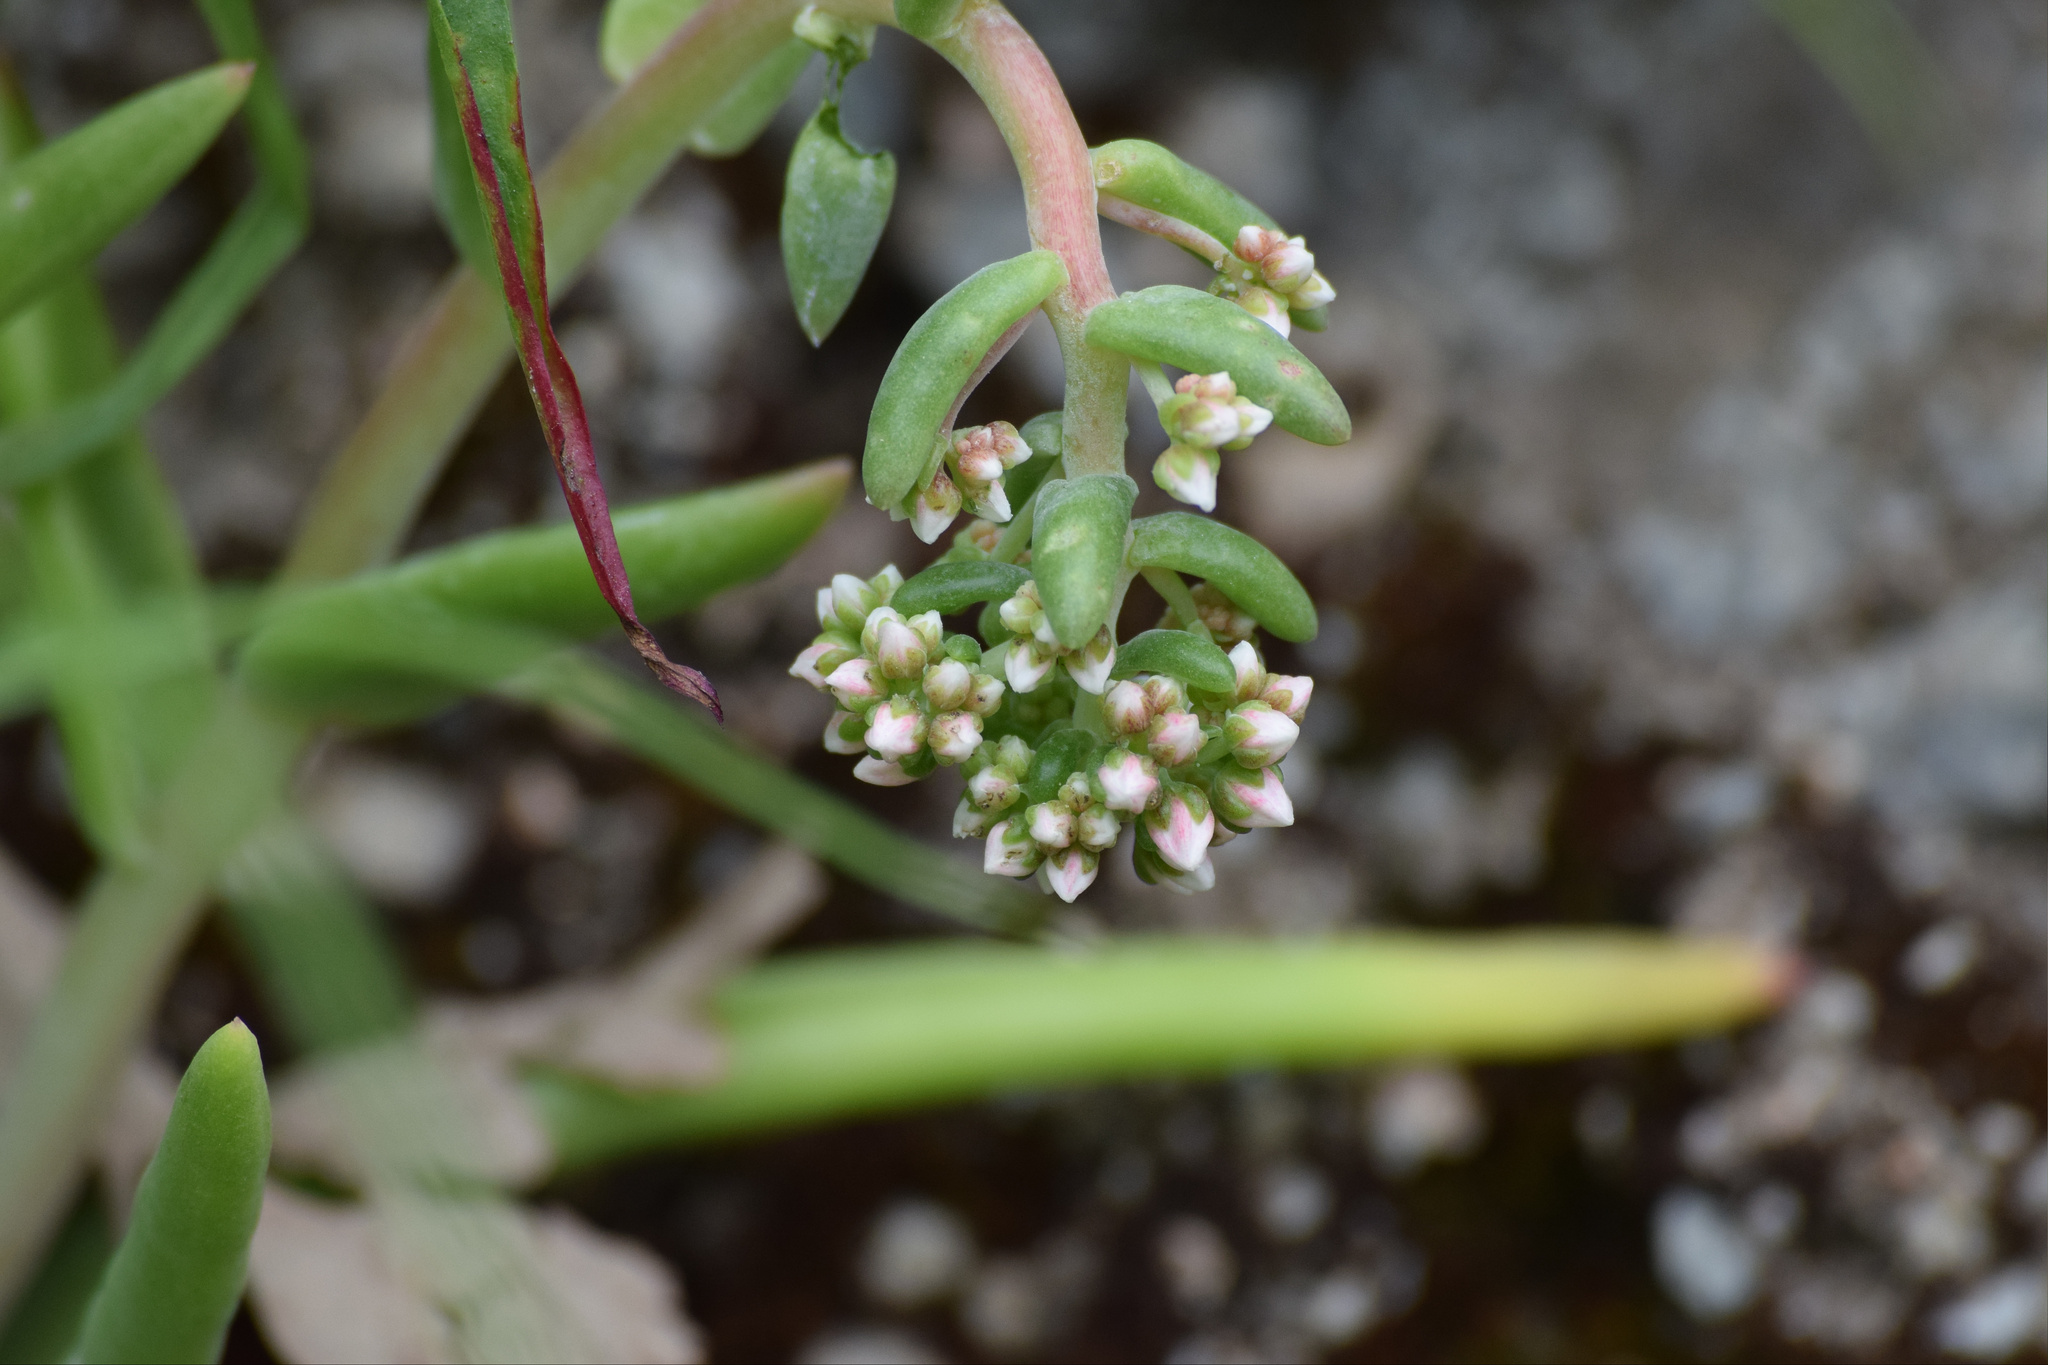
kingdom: Plantae
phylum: Tracheophyta
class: Magnoliopsida
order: Saxifragales
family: Crassulaceae
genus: Dudleya
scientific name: Dudleya densiflora
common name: San gabriel mountains dudleya
